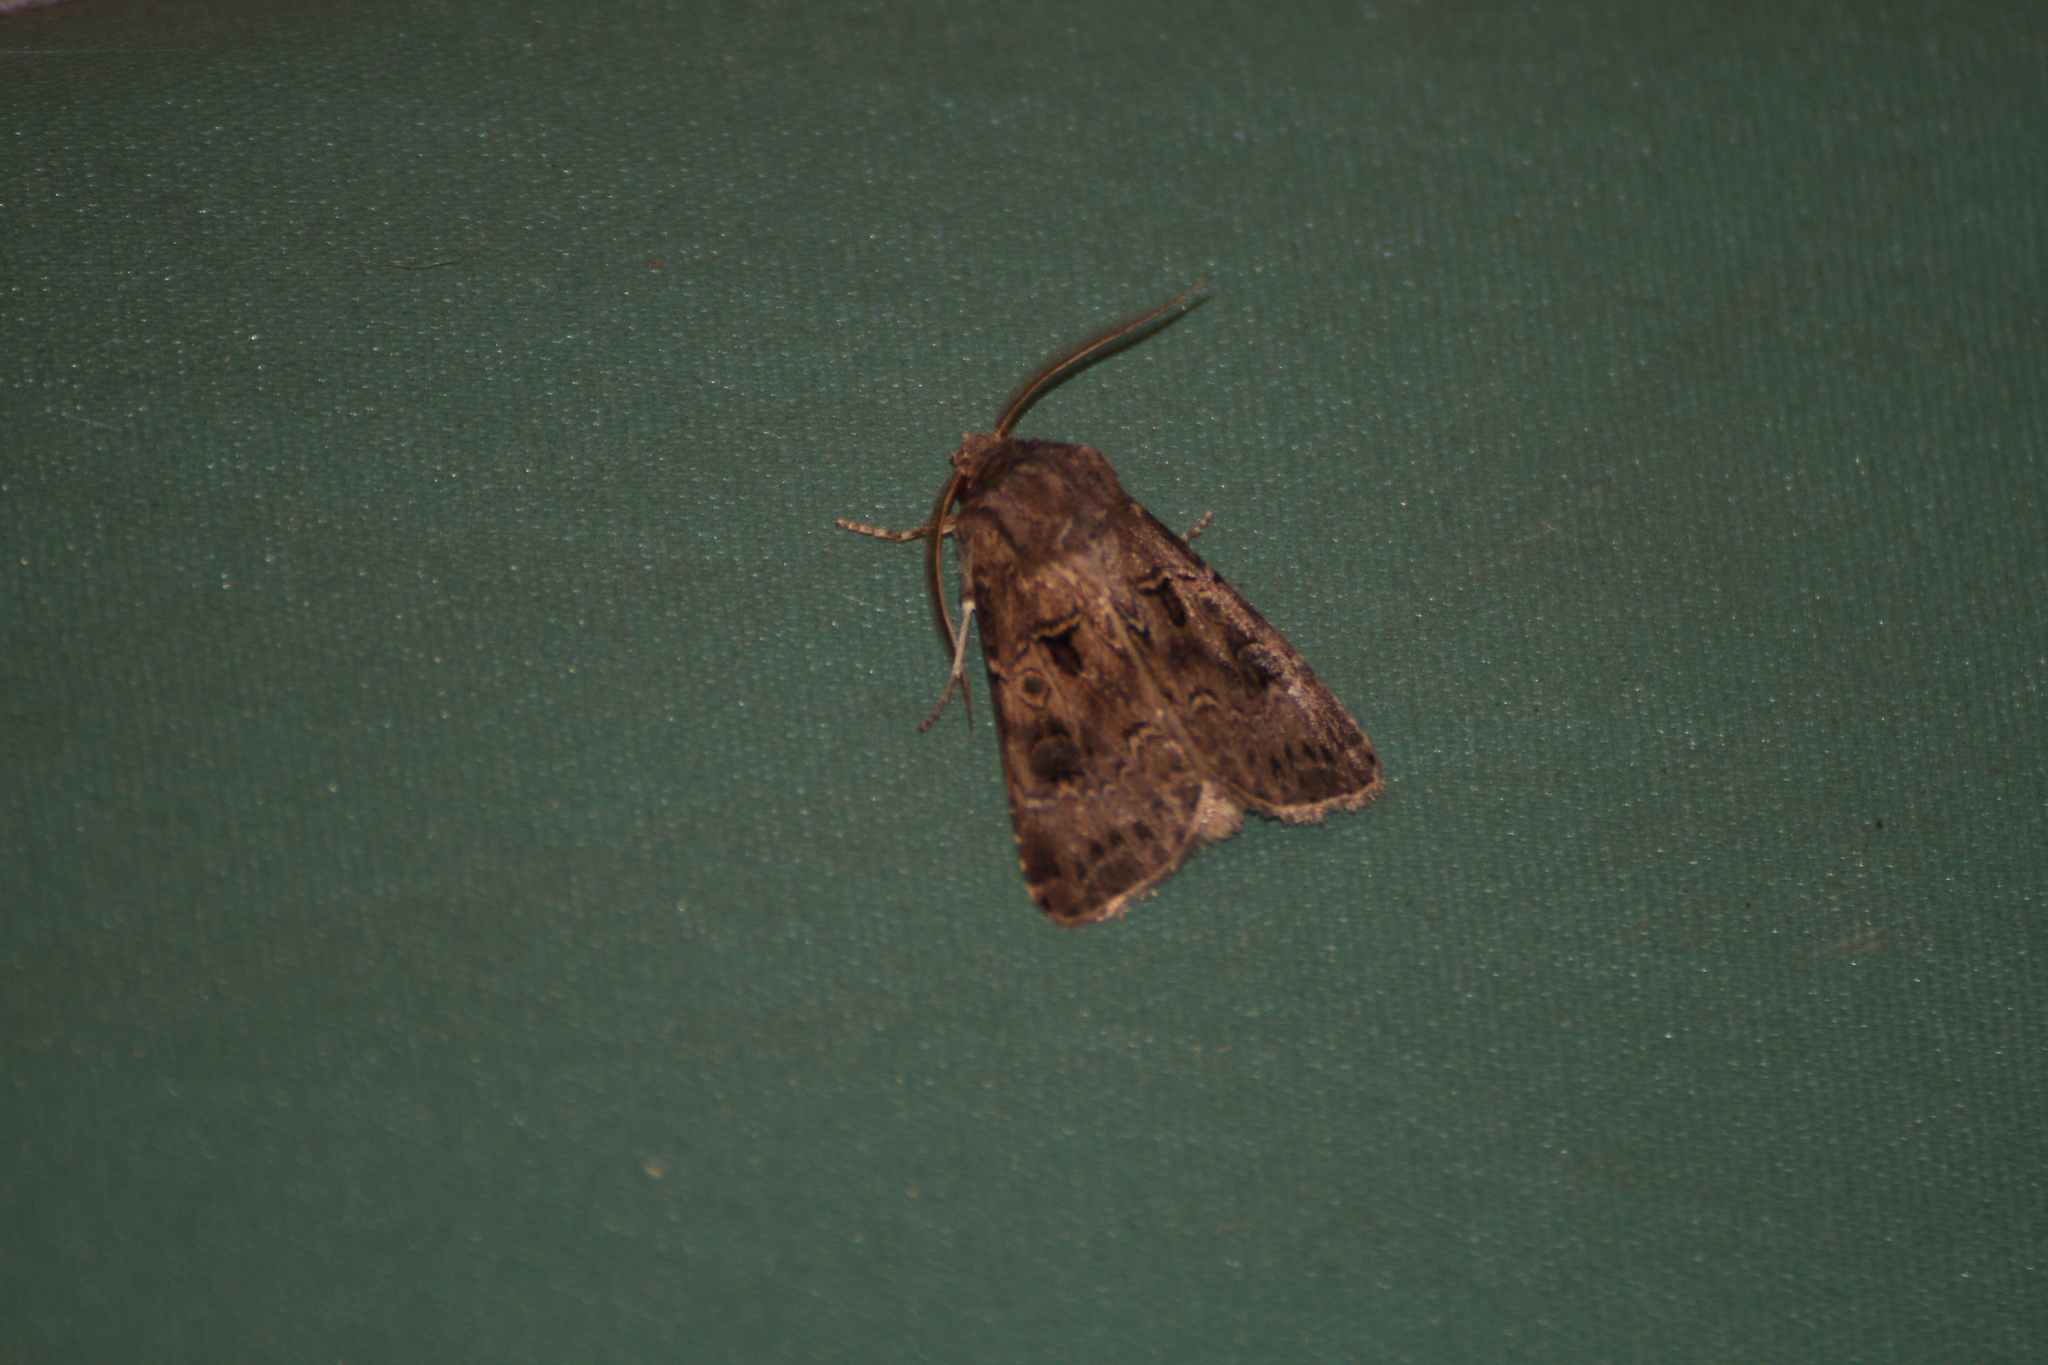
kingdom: Animalia
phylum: Arthropoda
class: Insecta
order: Lepidoptera
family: Noctuidae
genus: Agrotis
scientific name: Agrotis bigramma
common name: Great dart
